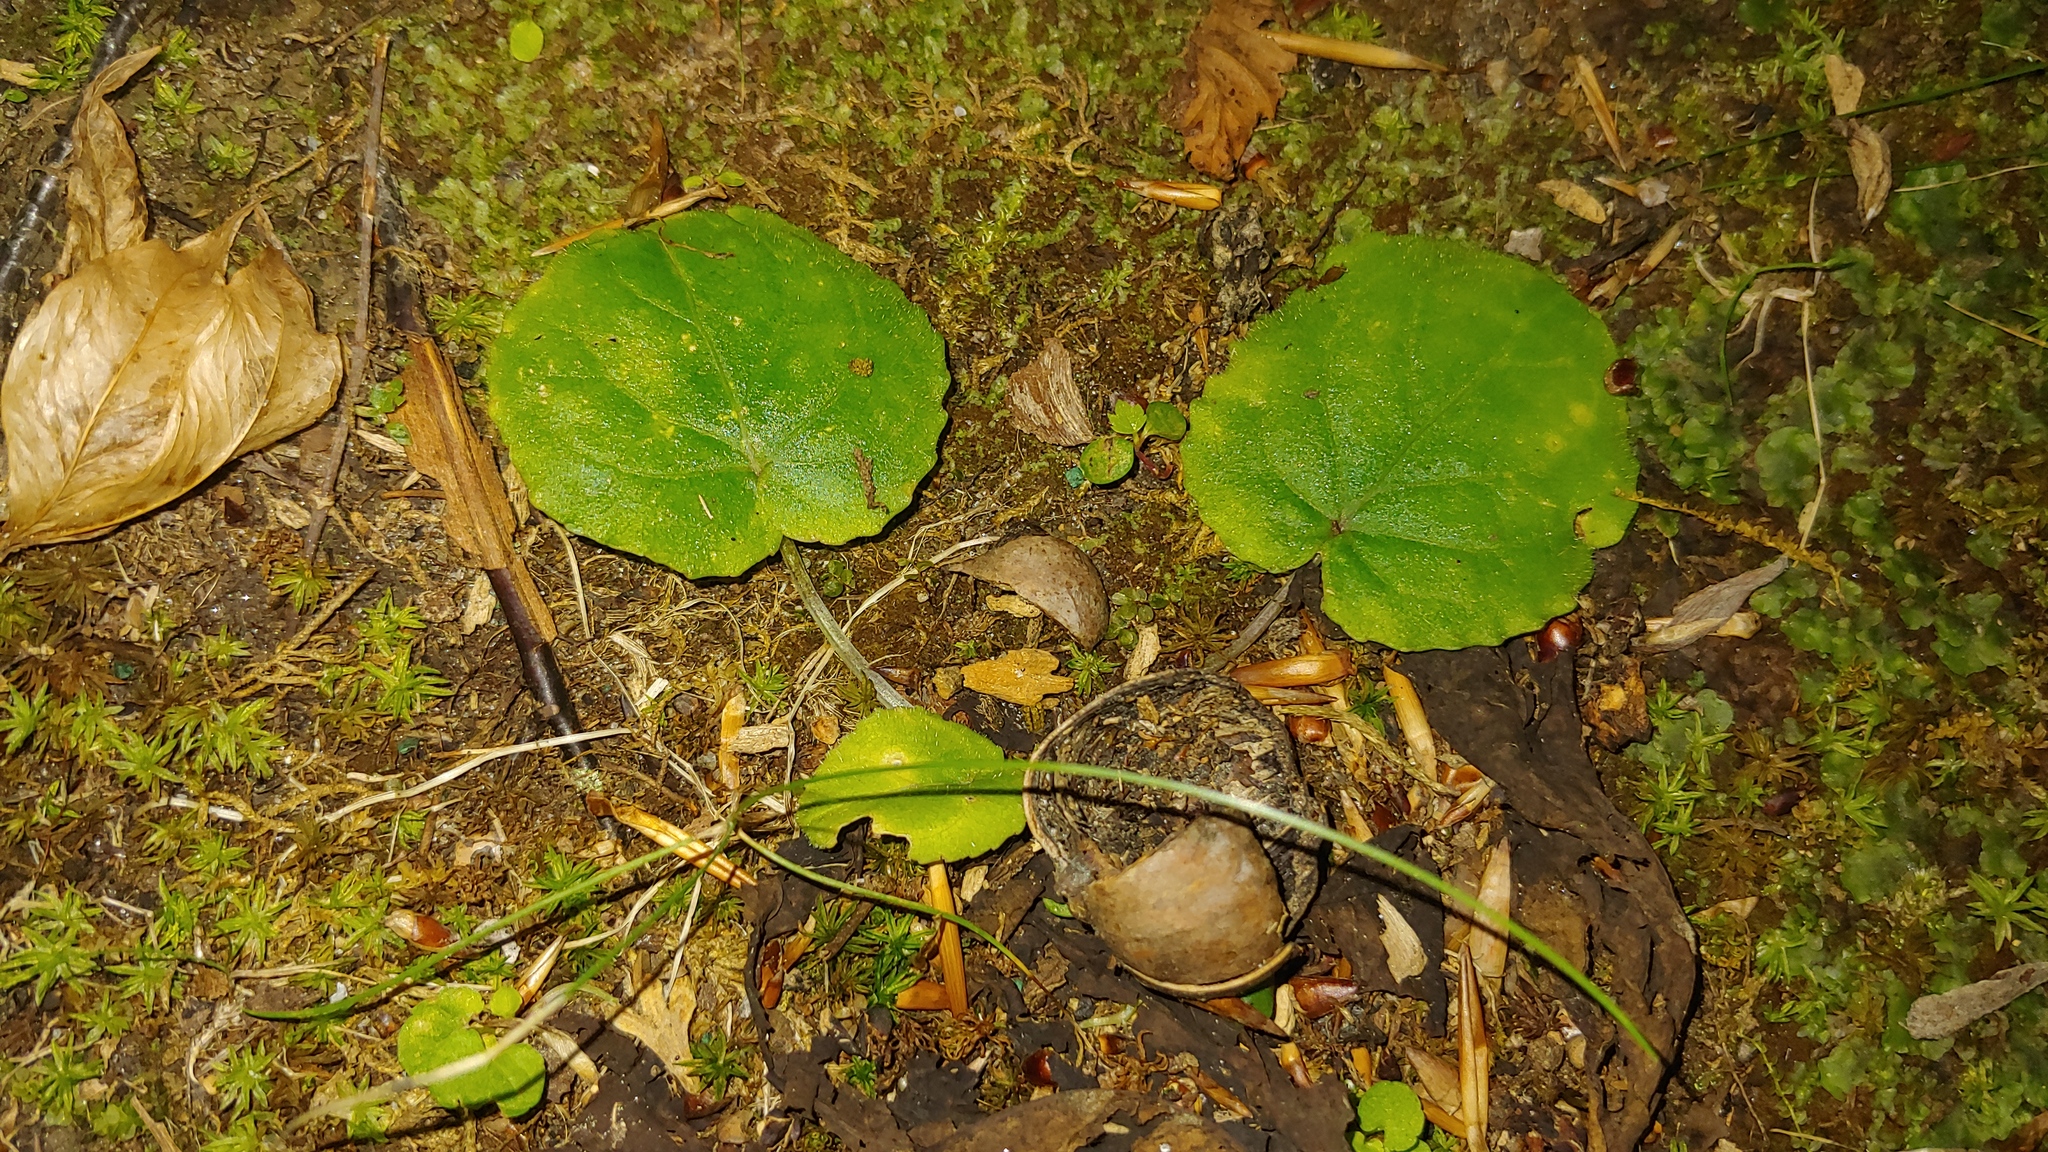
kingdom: Plantae
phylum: Tracheophyta
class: Magnoliopsida
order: Malpighiales
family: Violaceae
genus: Viola
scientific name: Viola rotundifolia
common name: Early yellow violet
